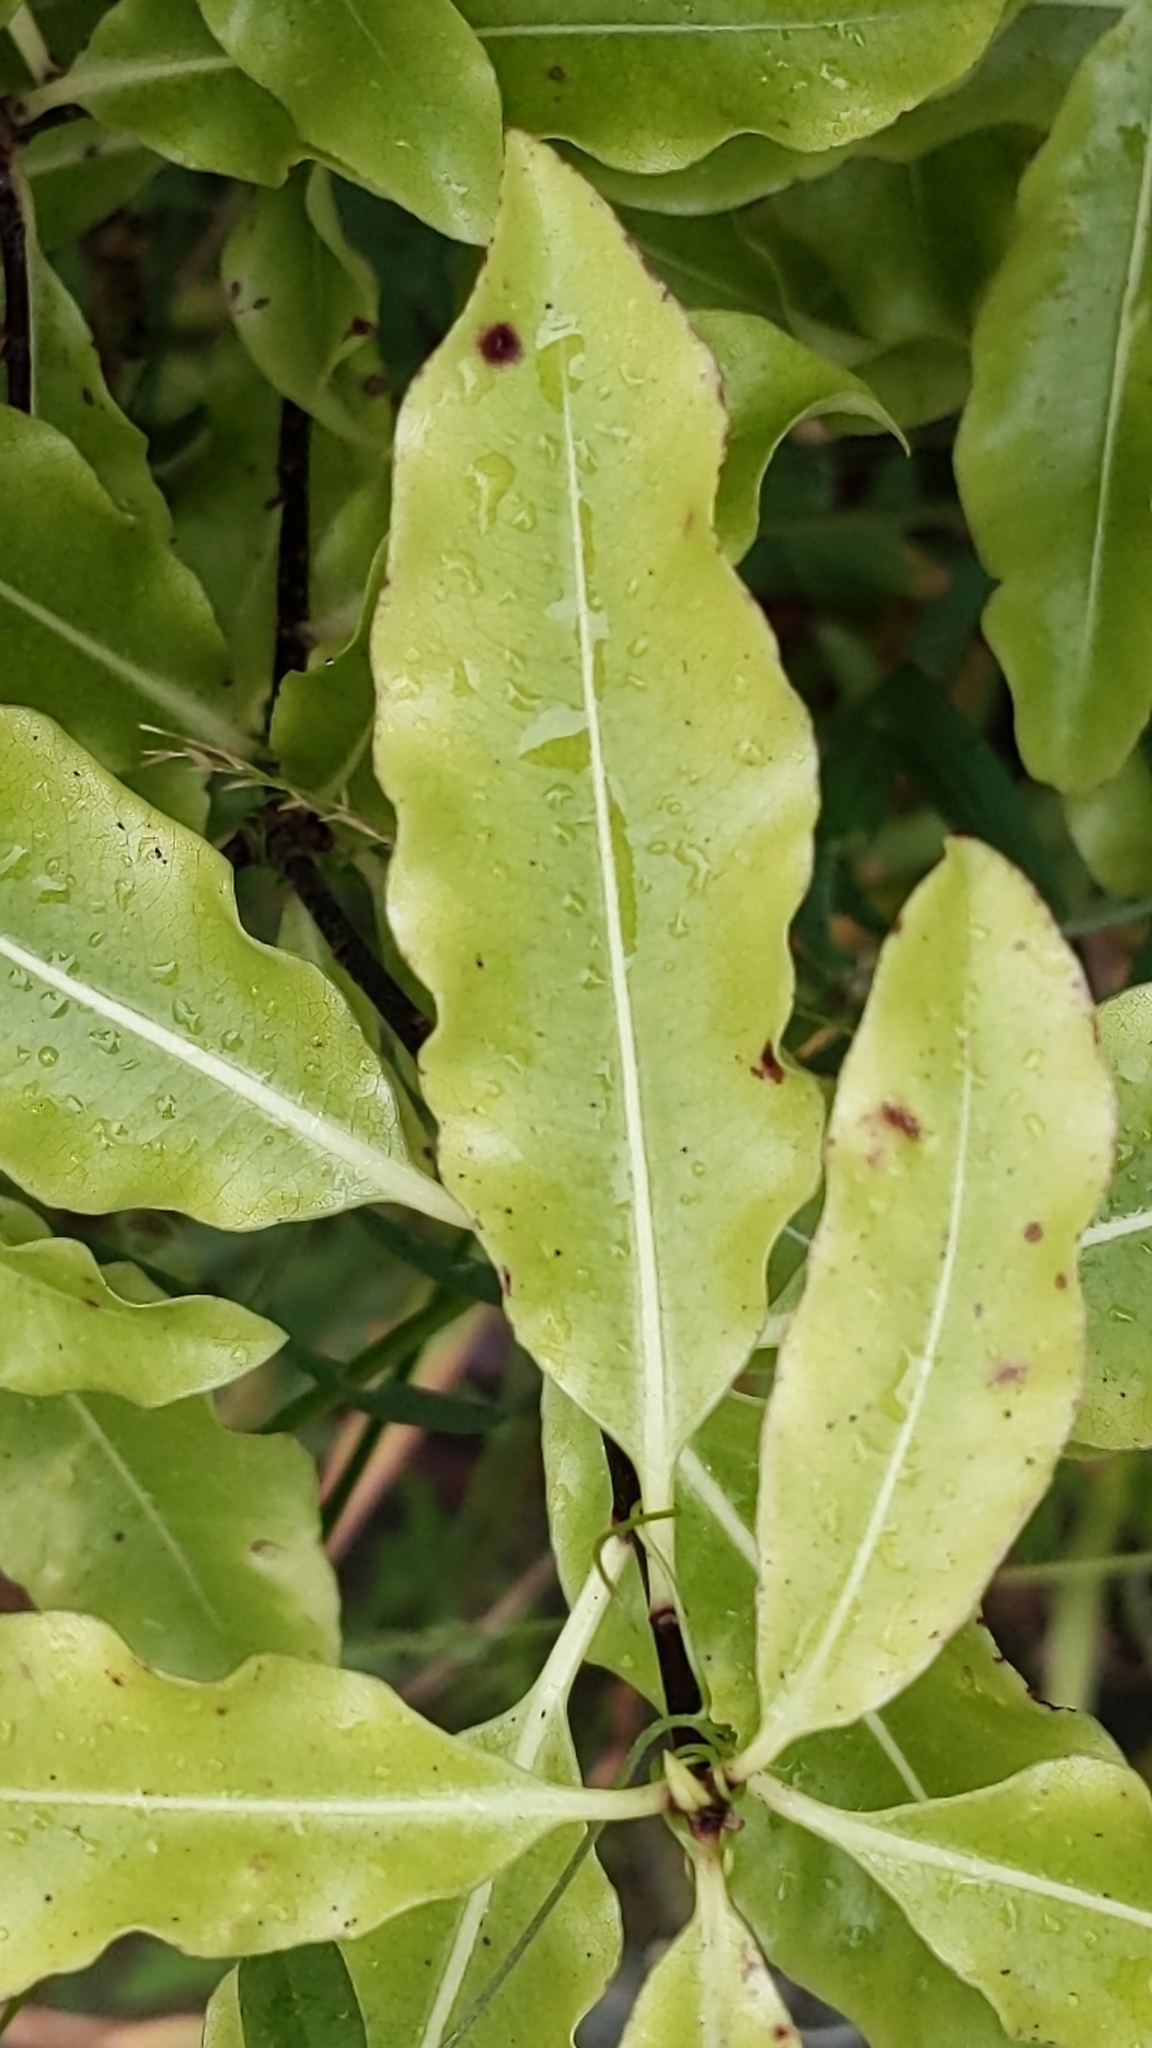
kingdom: Plantae
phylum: Tracheophyta
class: Magnoliopsida
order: Apiales
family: Pittosporaceae
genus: Pittosporum
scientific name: Pittosporum eugenioides
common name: Lemonwood
